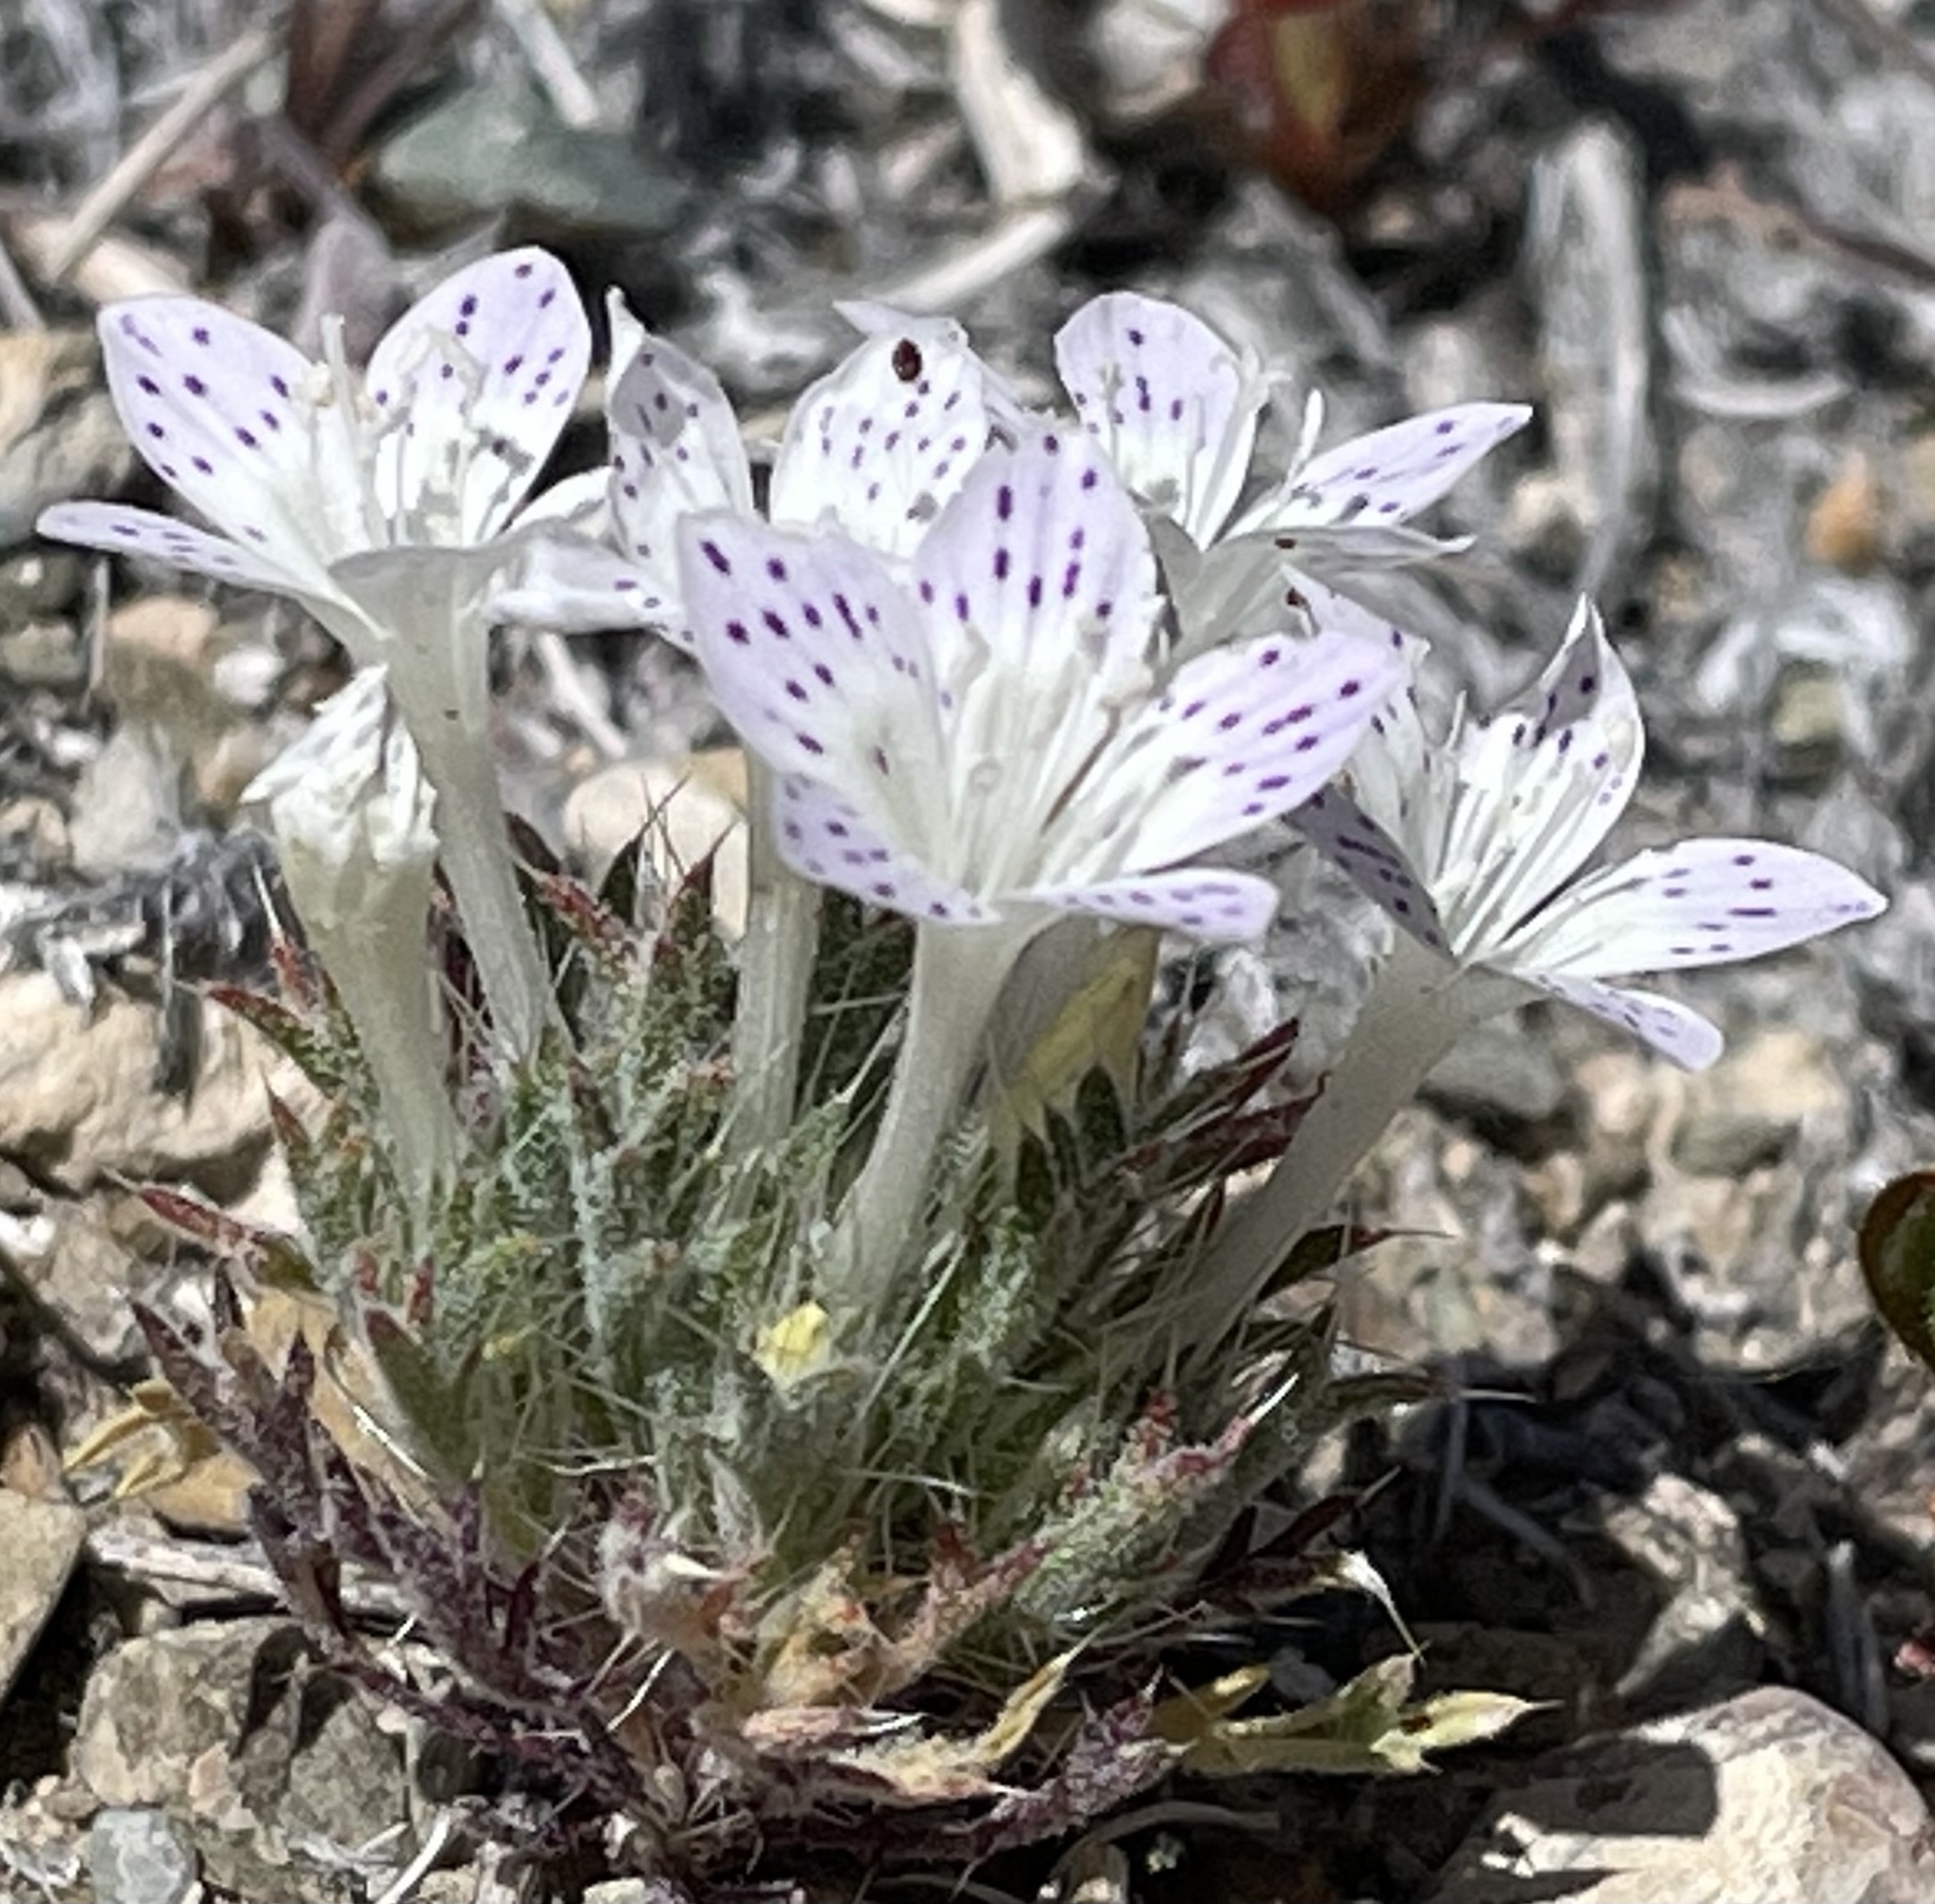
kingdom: Plantae
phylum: Tracheophyta
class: Magnoliopsida
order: Ericales
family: Polemoniaceae
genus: Langloisia
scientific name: Langloisia setosissima
